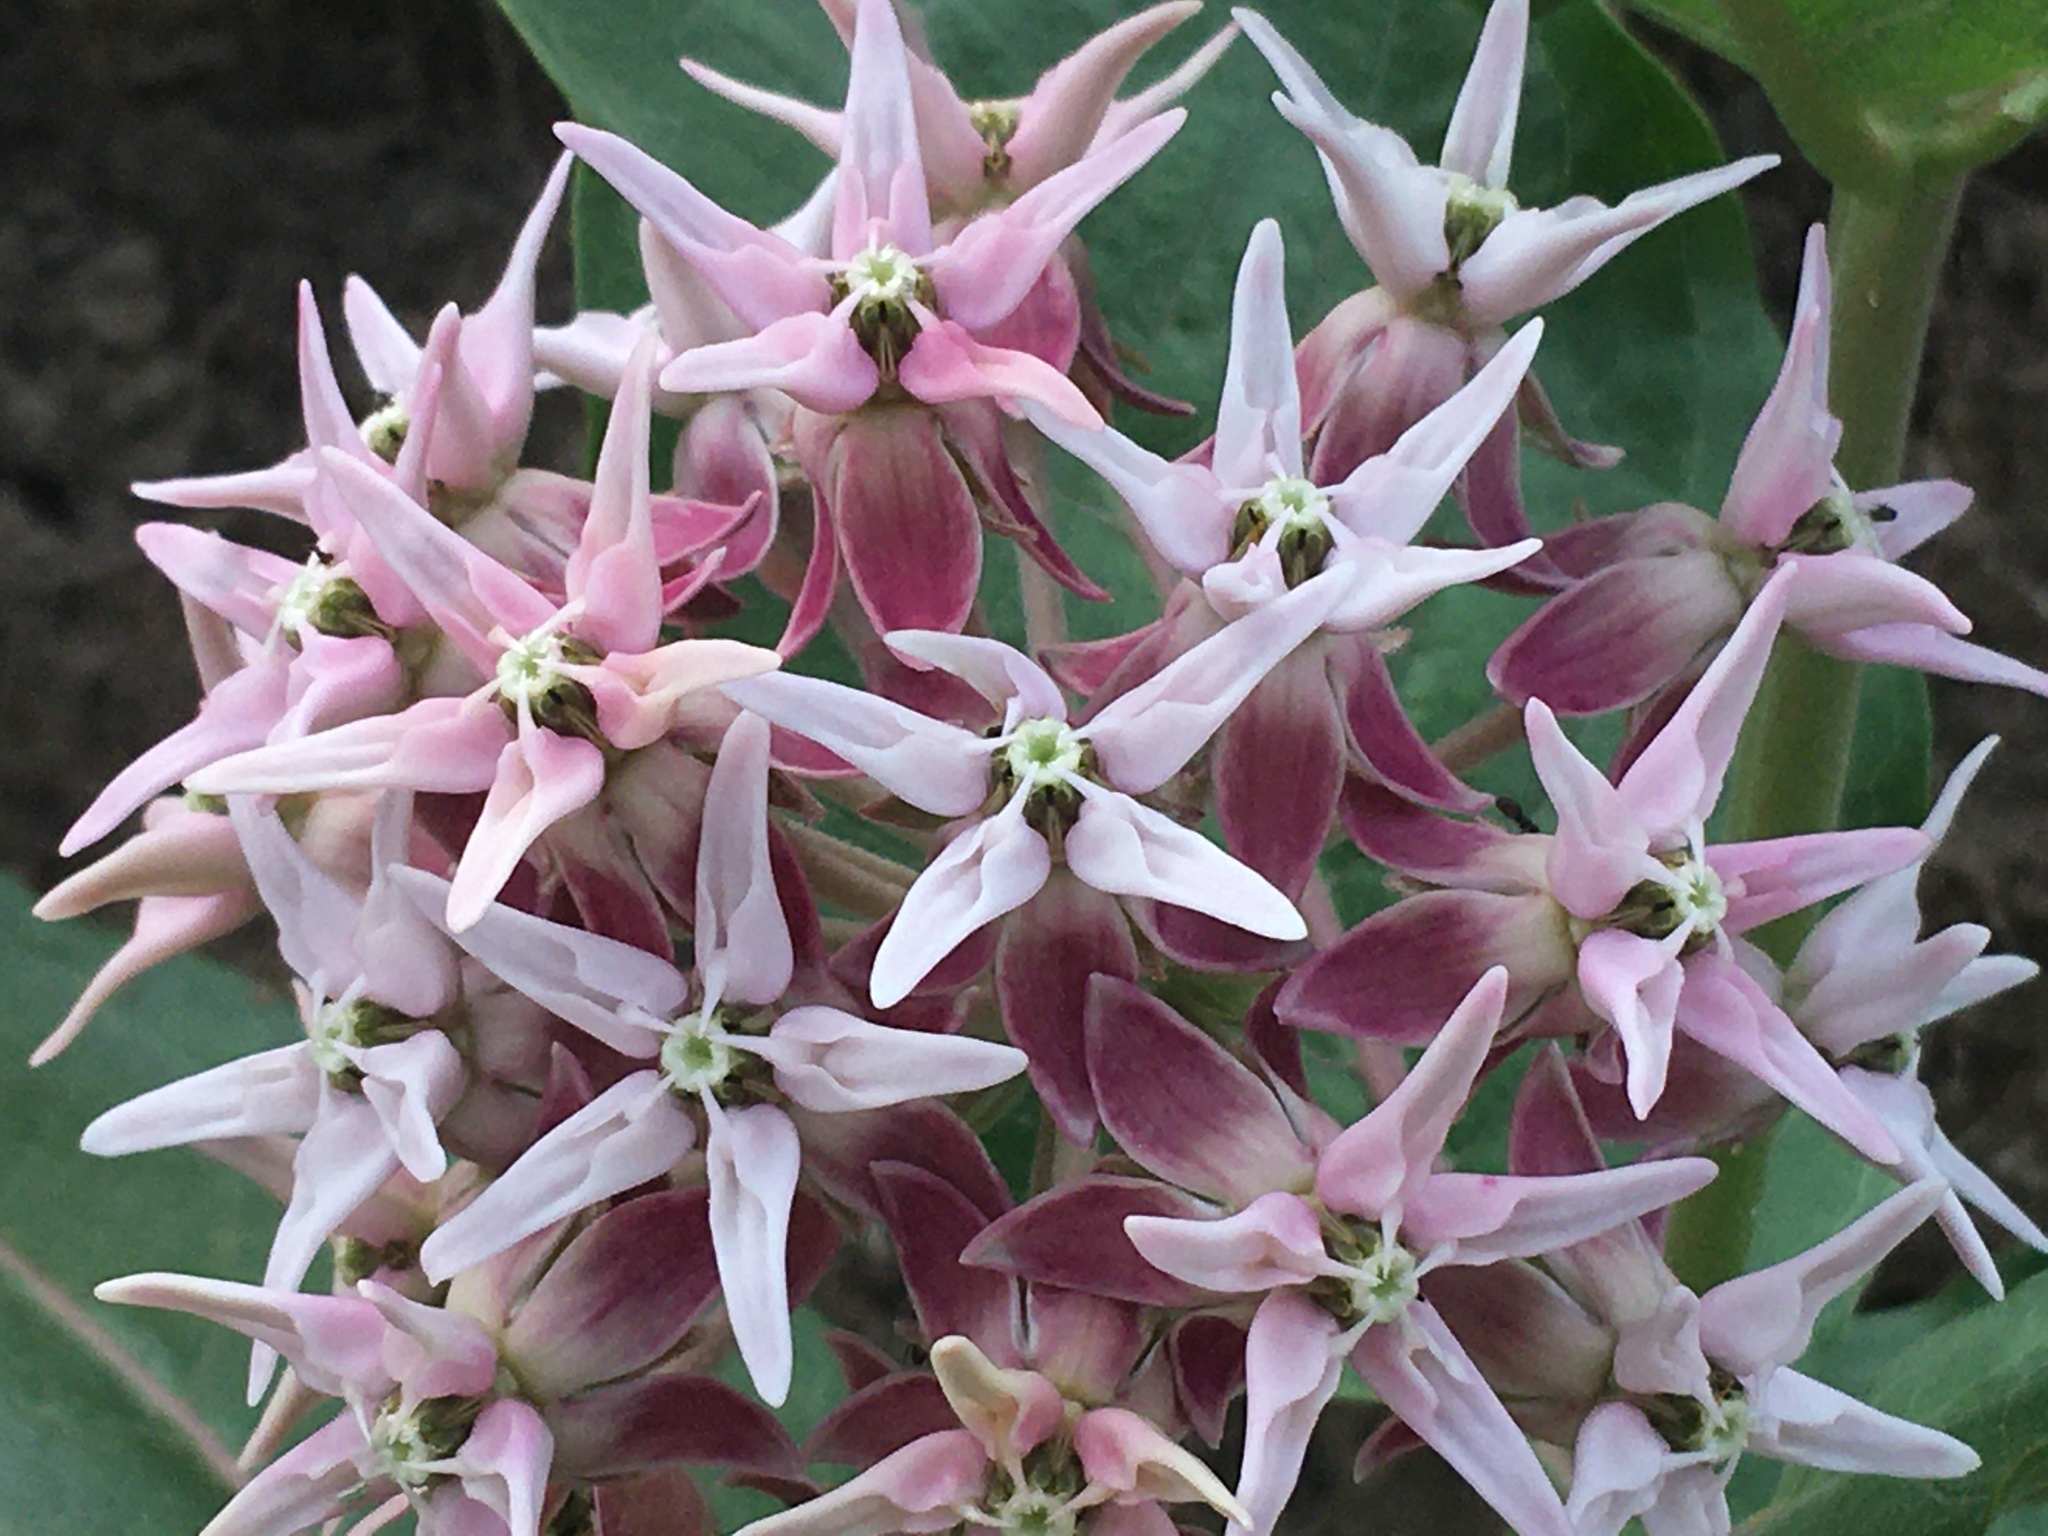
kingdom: Plantae
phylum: Tracheophyta
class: Magnoliopsida
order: Gentianales
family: Apocynaceae
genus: Asclepias
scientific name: Asclepias speciosa
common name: Showy milkweed
